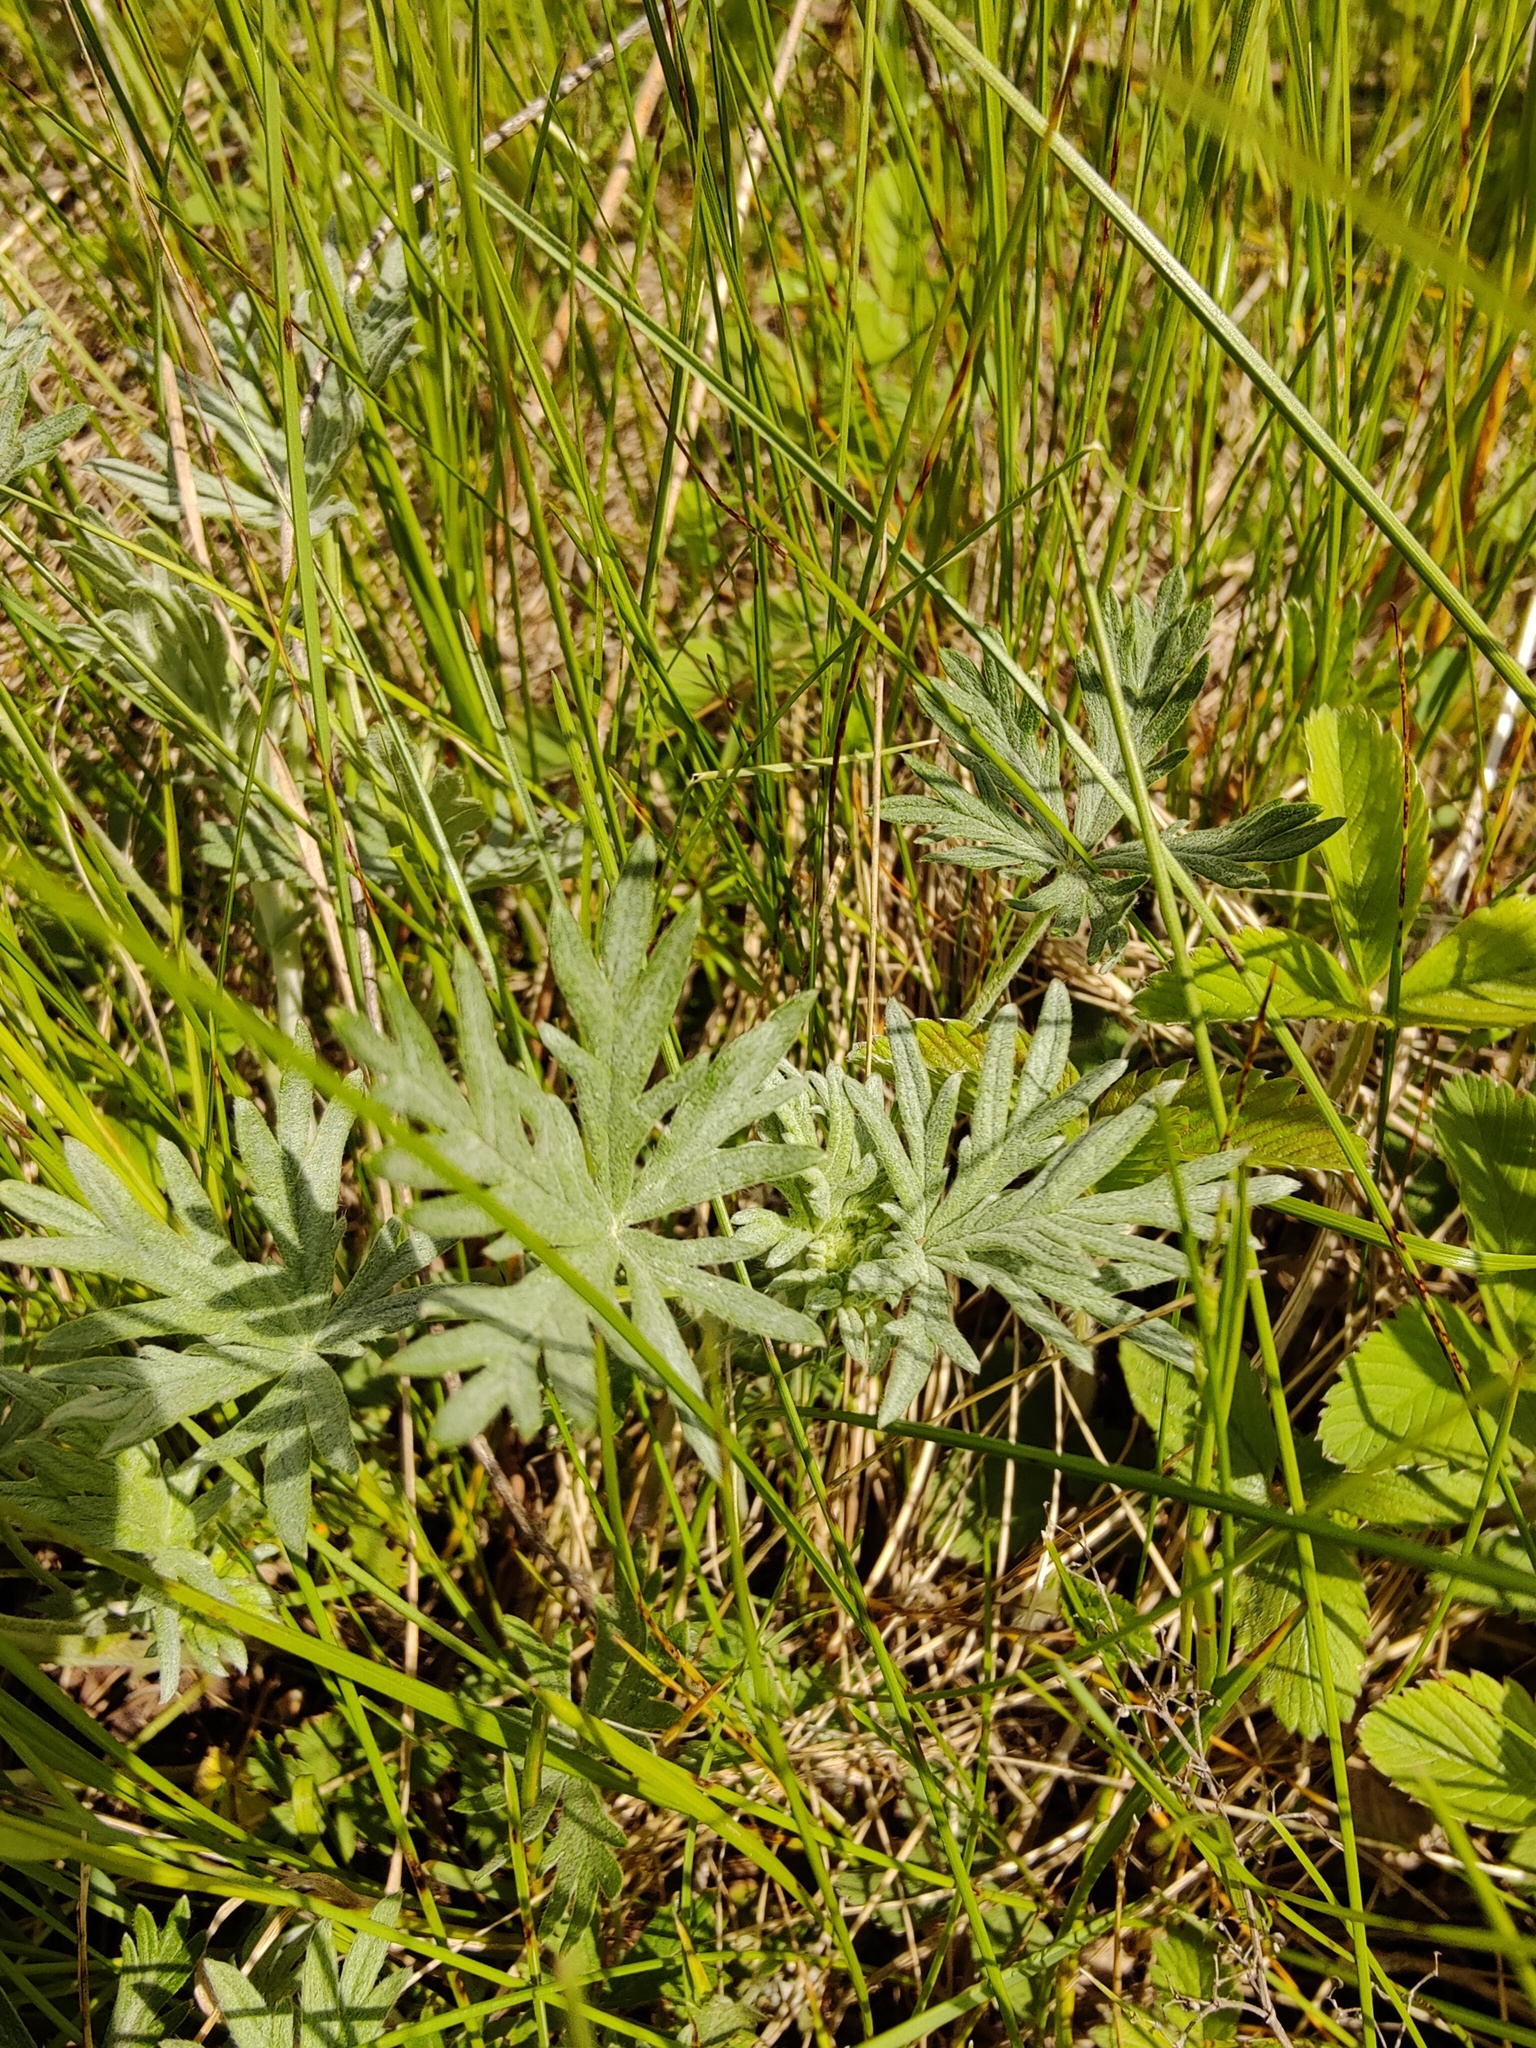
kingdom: Plantae
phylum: Tracheophyta
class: Magnoliopsida
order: Rosales
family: Rosaceae
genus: Potentilla
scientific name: Potentilla argentea
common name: Hoary cinquefoil
